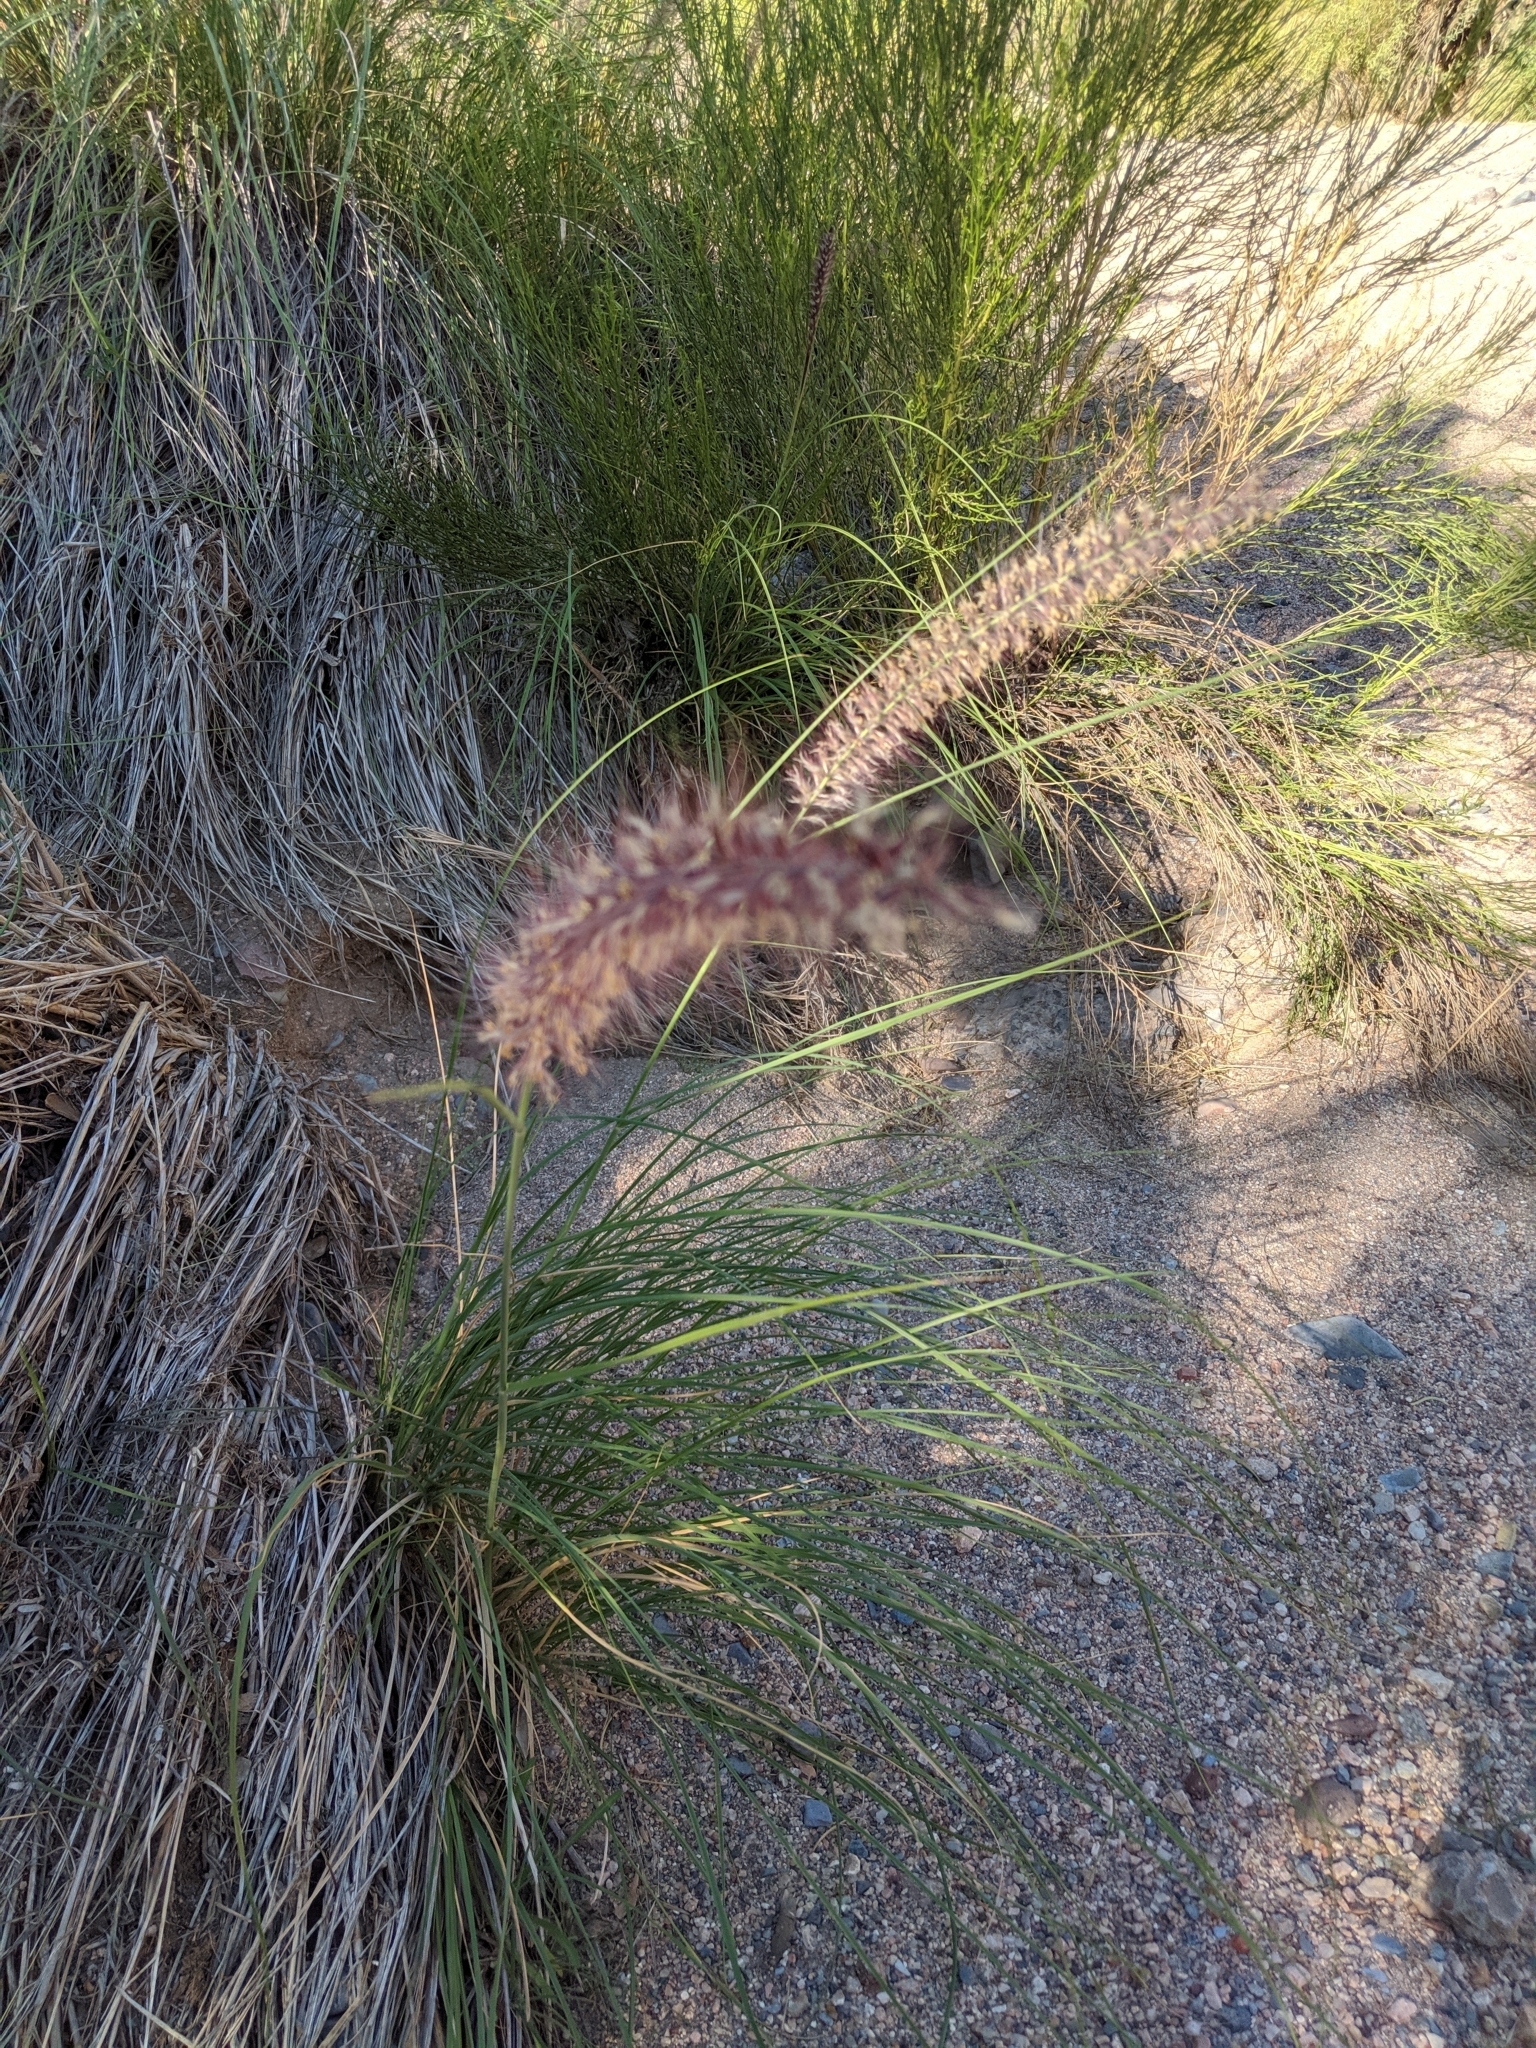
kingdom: Plantae
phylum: Tracheophyta
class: Liliopsida
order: Poales
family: Poaceae
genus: Cenchrus
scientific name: Cenchrus setaceus
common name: Crimson fountaingrass
